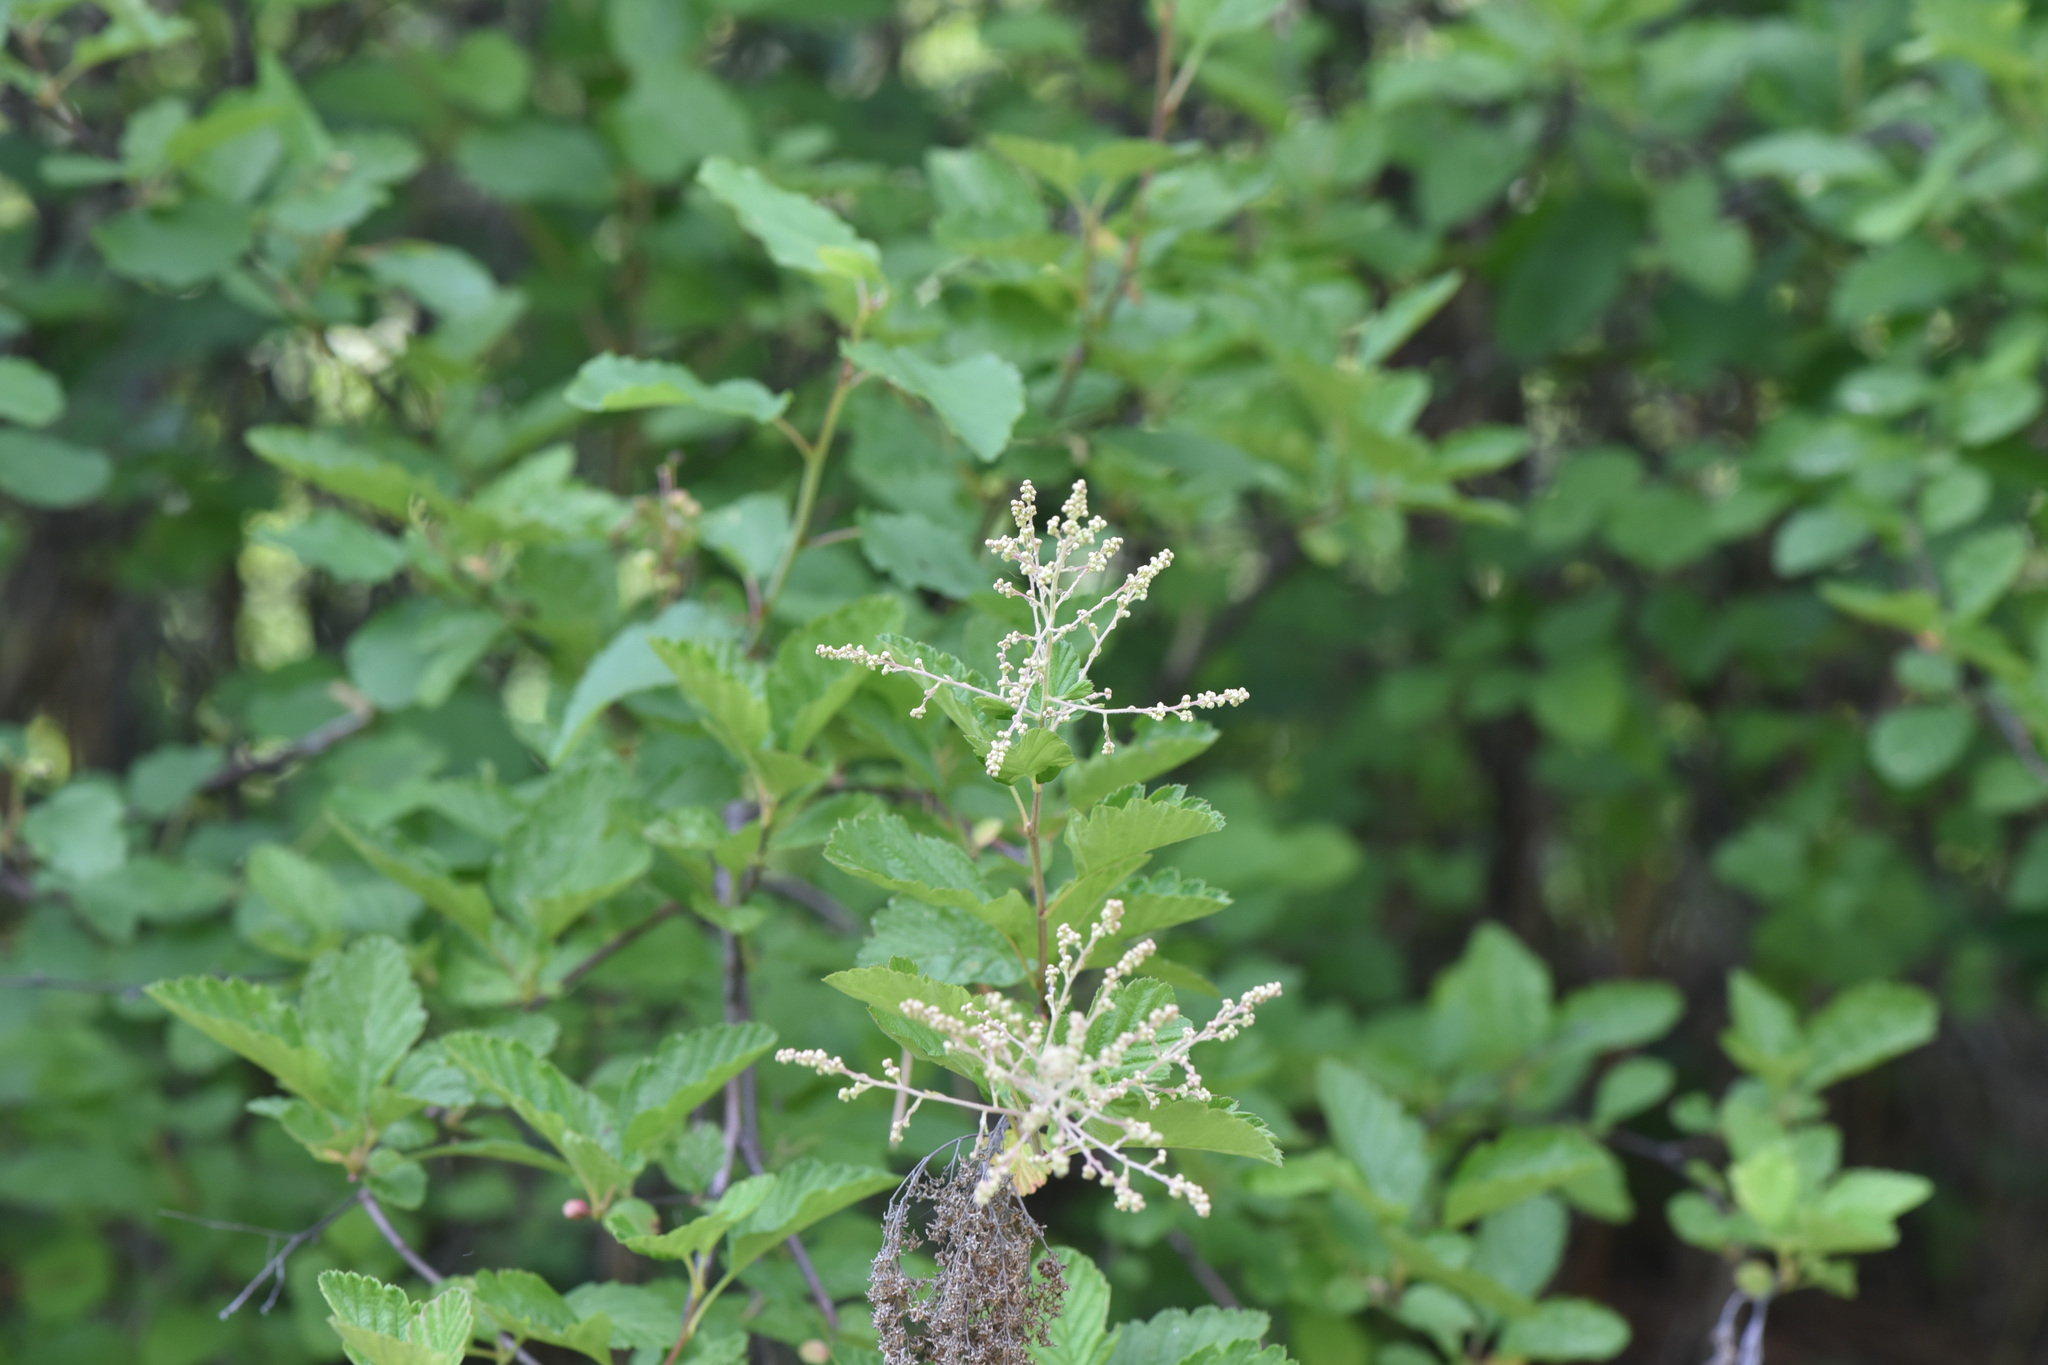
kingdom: Plantae
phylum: Tracheophyta
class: Magnoliopsida
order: Rosales
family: Rosaceae
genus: Holodiscus
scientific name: Holodiscus discolor
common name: Oceanspray
